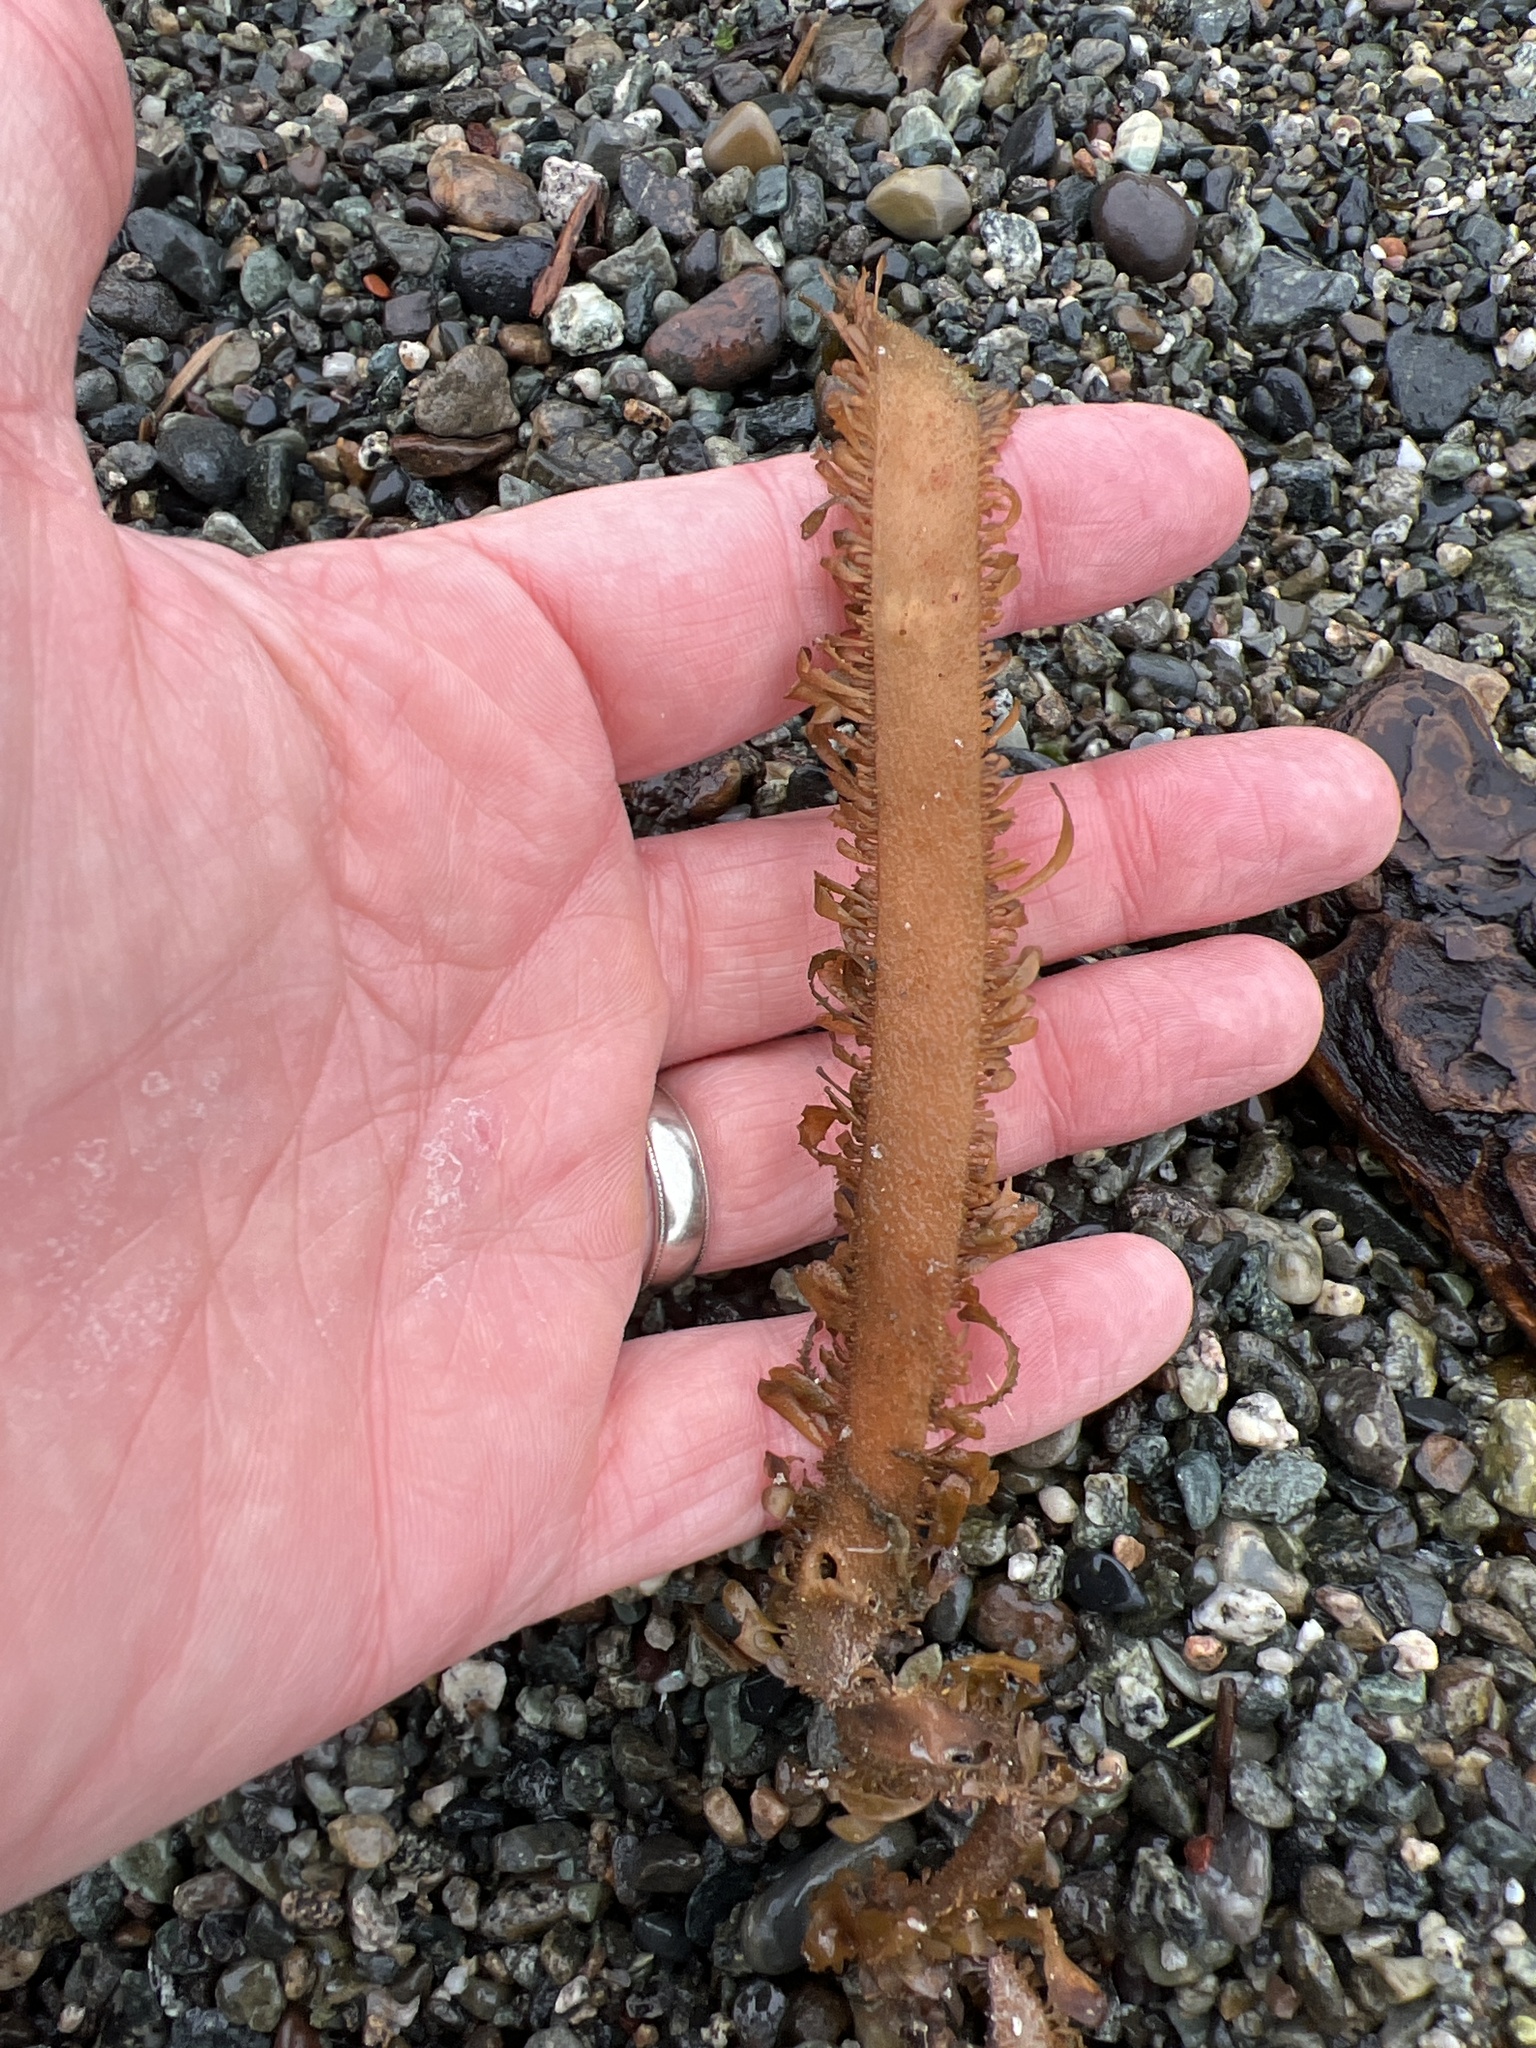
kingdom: Chromista
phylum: Ochrophyta
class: Phaeophyceae
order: Laminariales
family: Lessoniaceae
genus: Egregia
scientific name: Egregia menziesii
